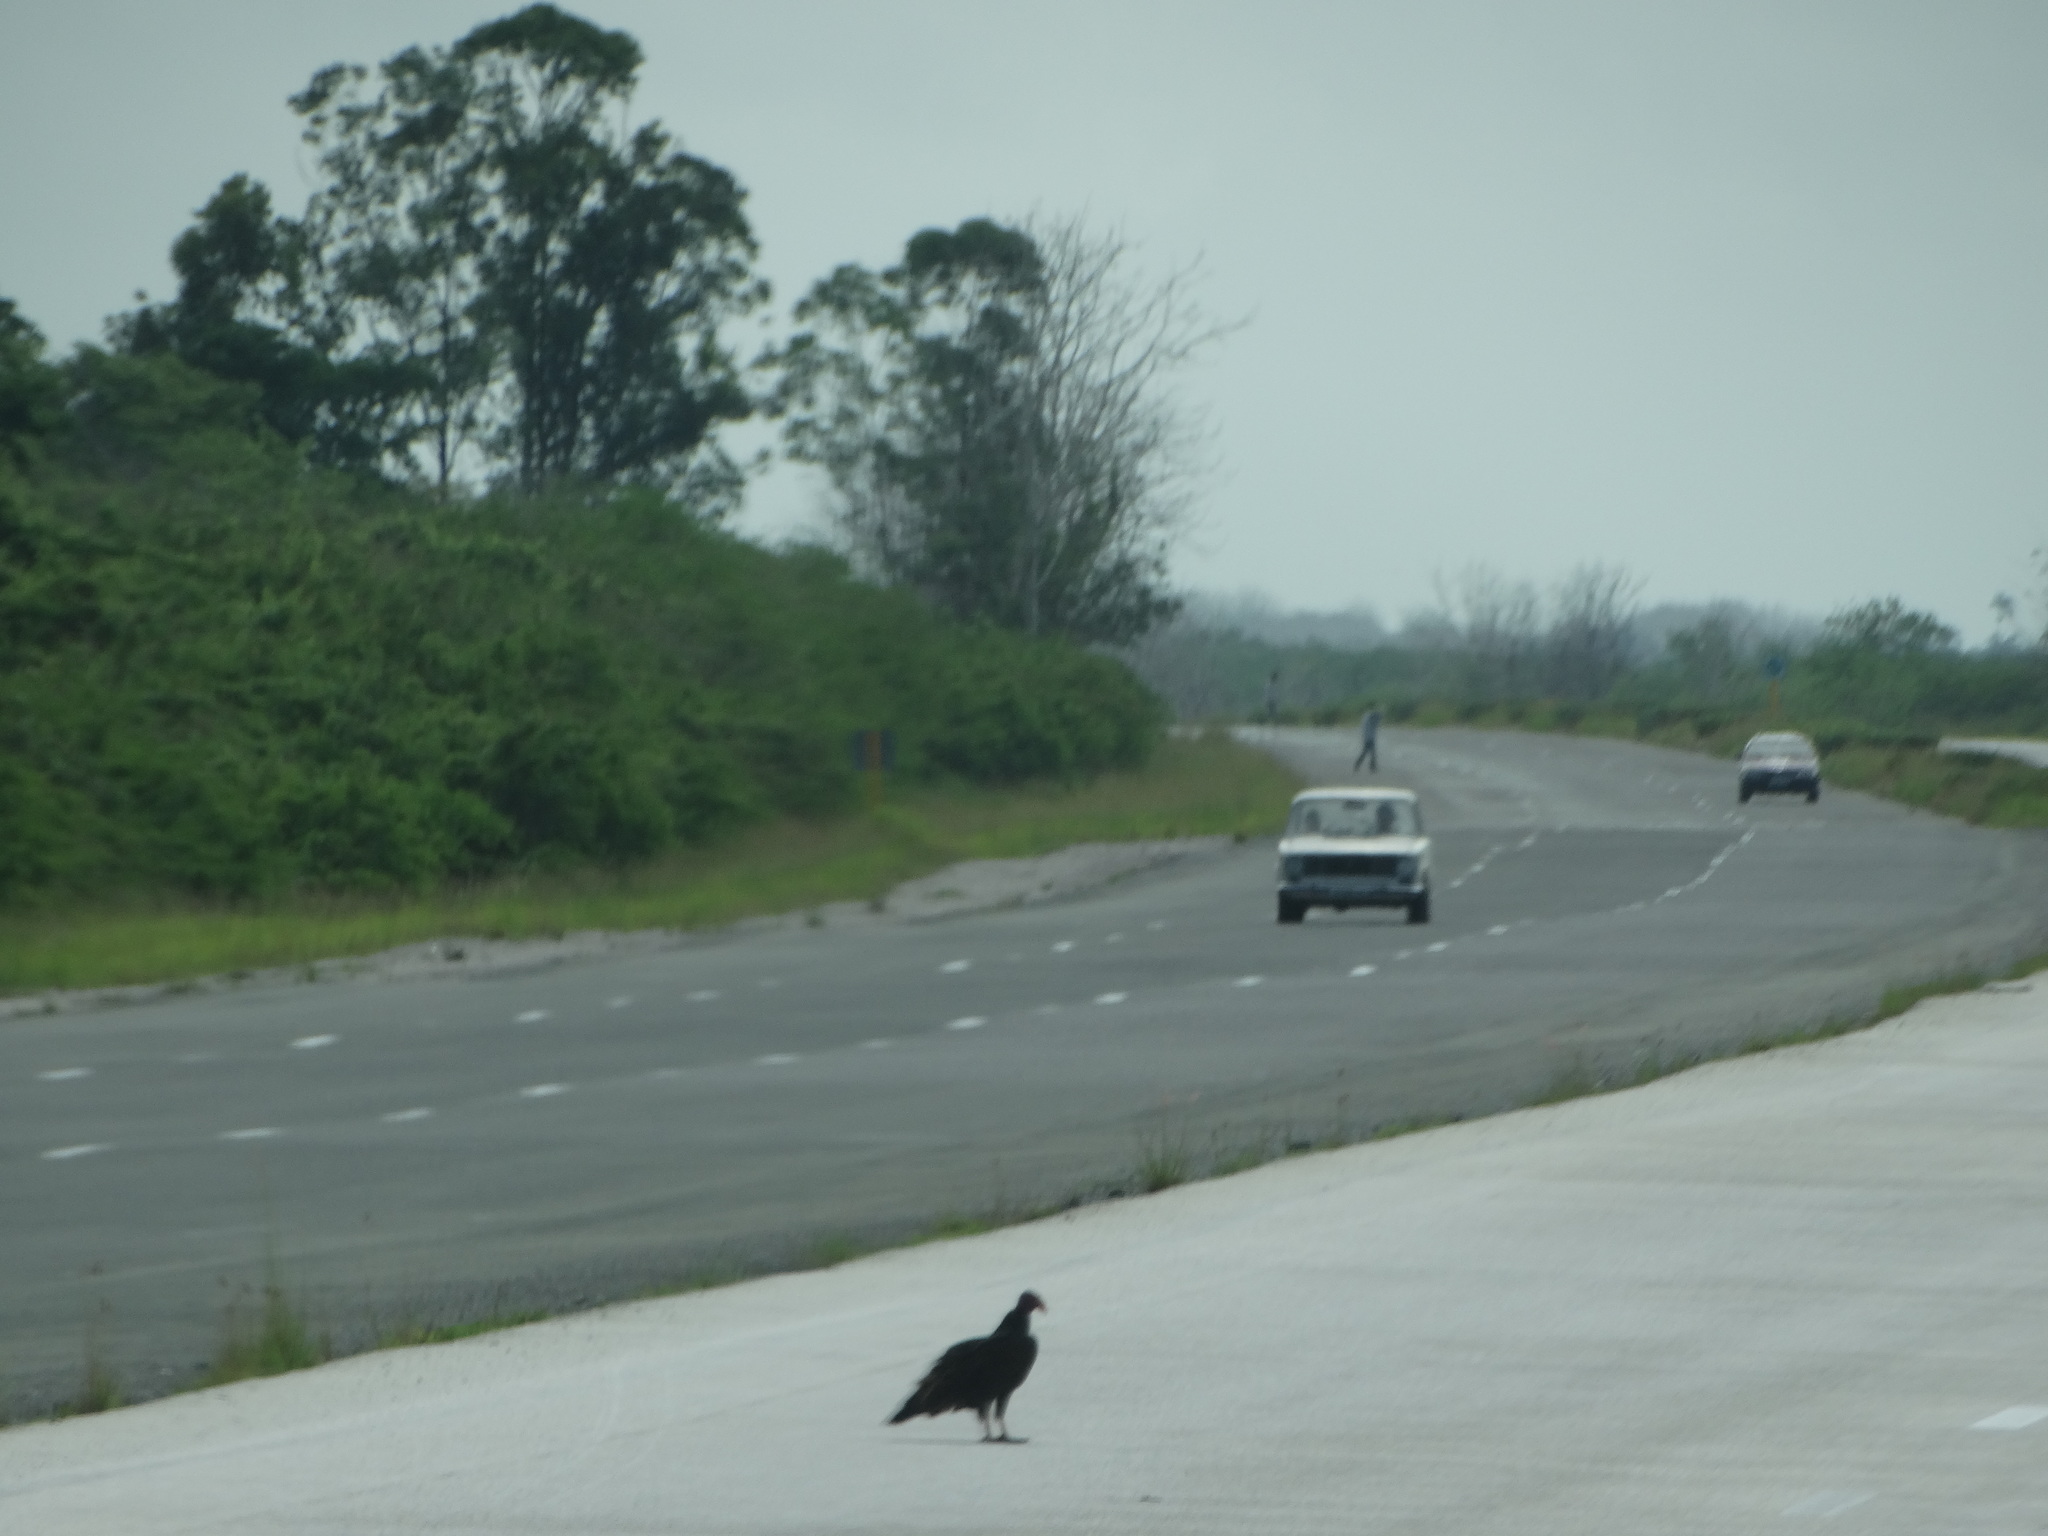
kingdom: Animalia
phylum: Chordata
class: Aves
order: Accipitriformes
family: Cathartidae
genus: Cathartes
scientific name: Cathartes aura
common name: Turkey vulture
